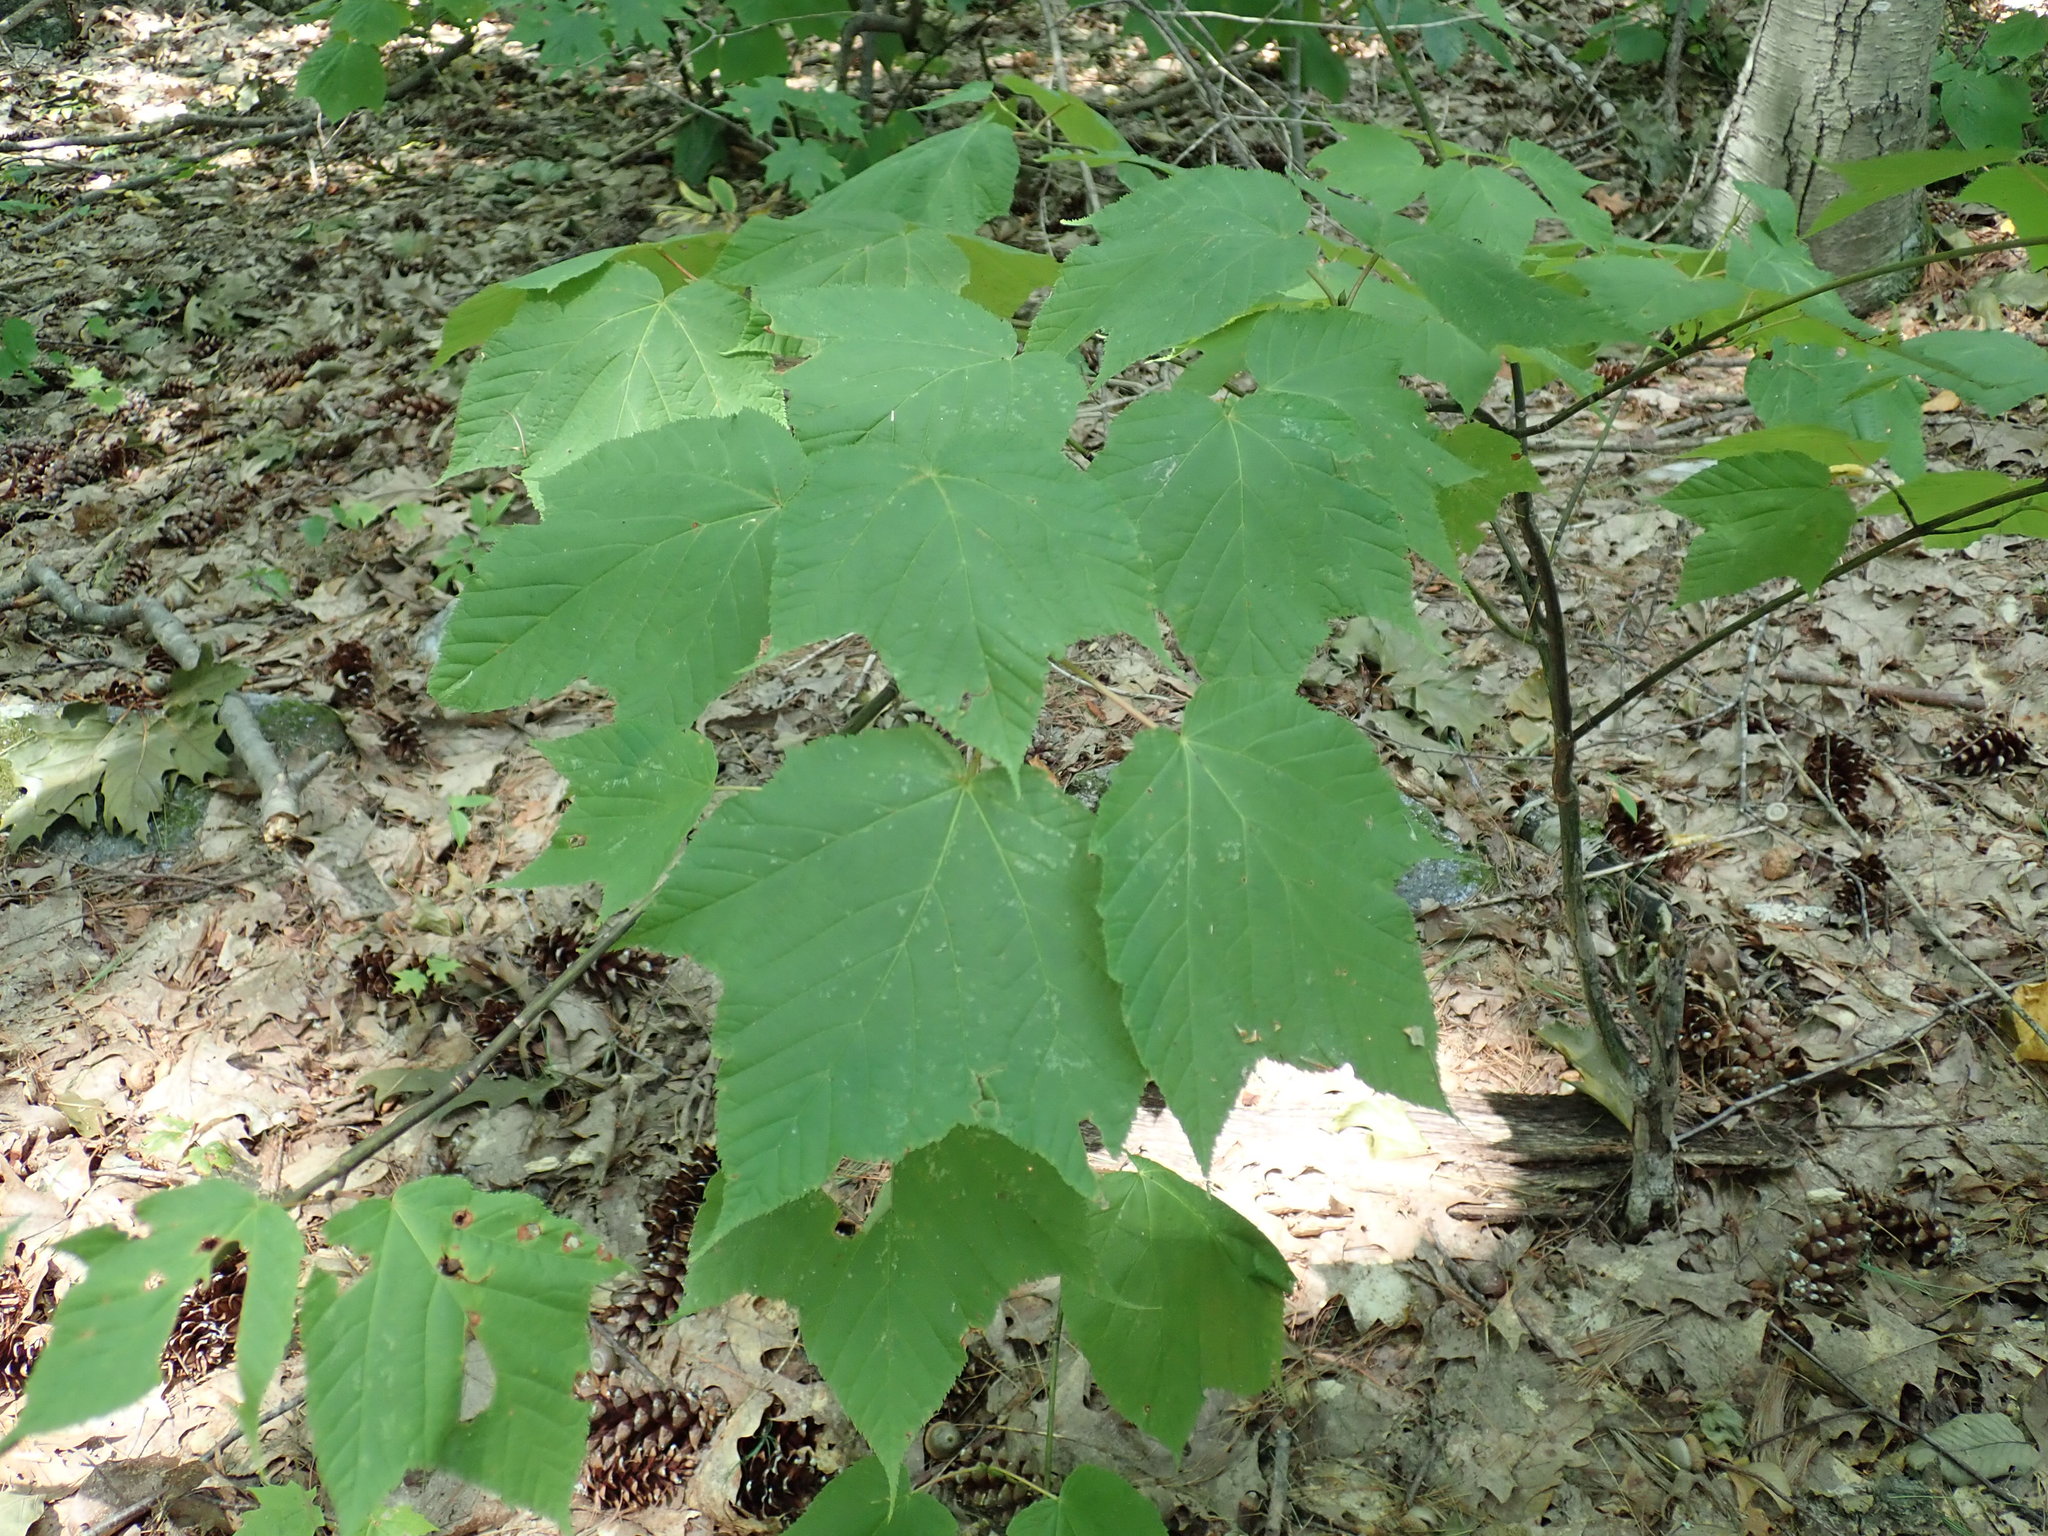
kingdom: Plantae
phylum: Tracheophyta
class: Magnoliopsida
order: Sapindales
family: Sapindaceae
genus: Acer
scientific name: Acer pensylvanicum
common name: Moosewood
